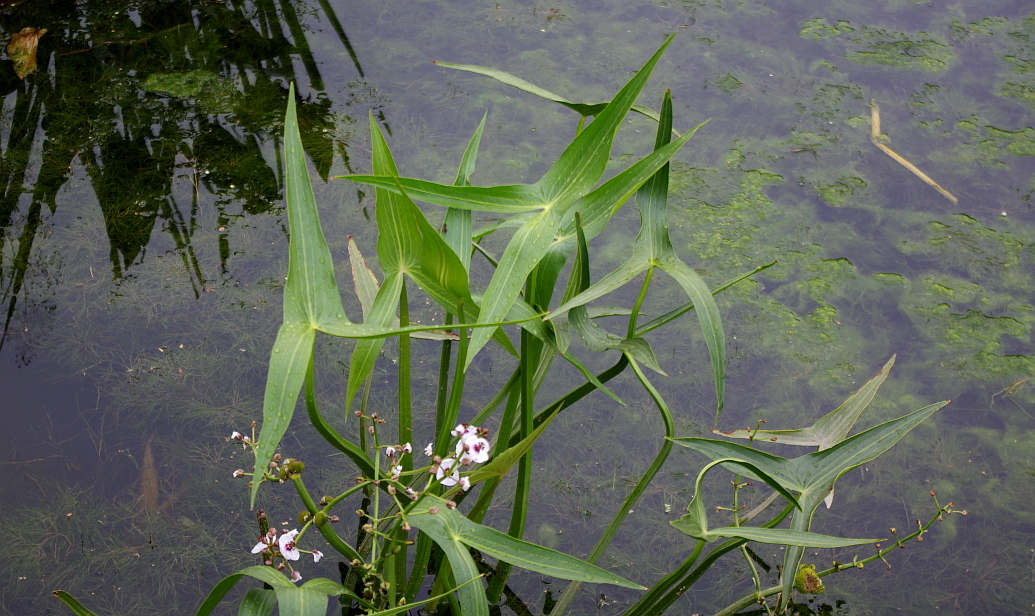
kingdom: Plantae
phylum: Tracheophyta
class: Liliopsida
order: Alismatales
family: Alismataceae
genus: Sagittaria
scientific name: Sagittaria sagittifolia
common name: Arrowhead
